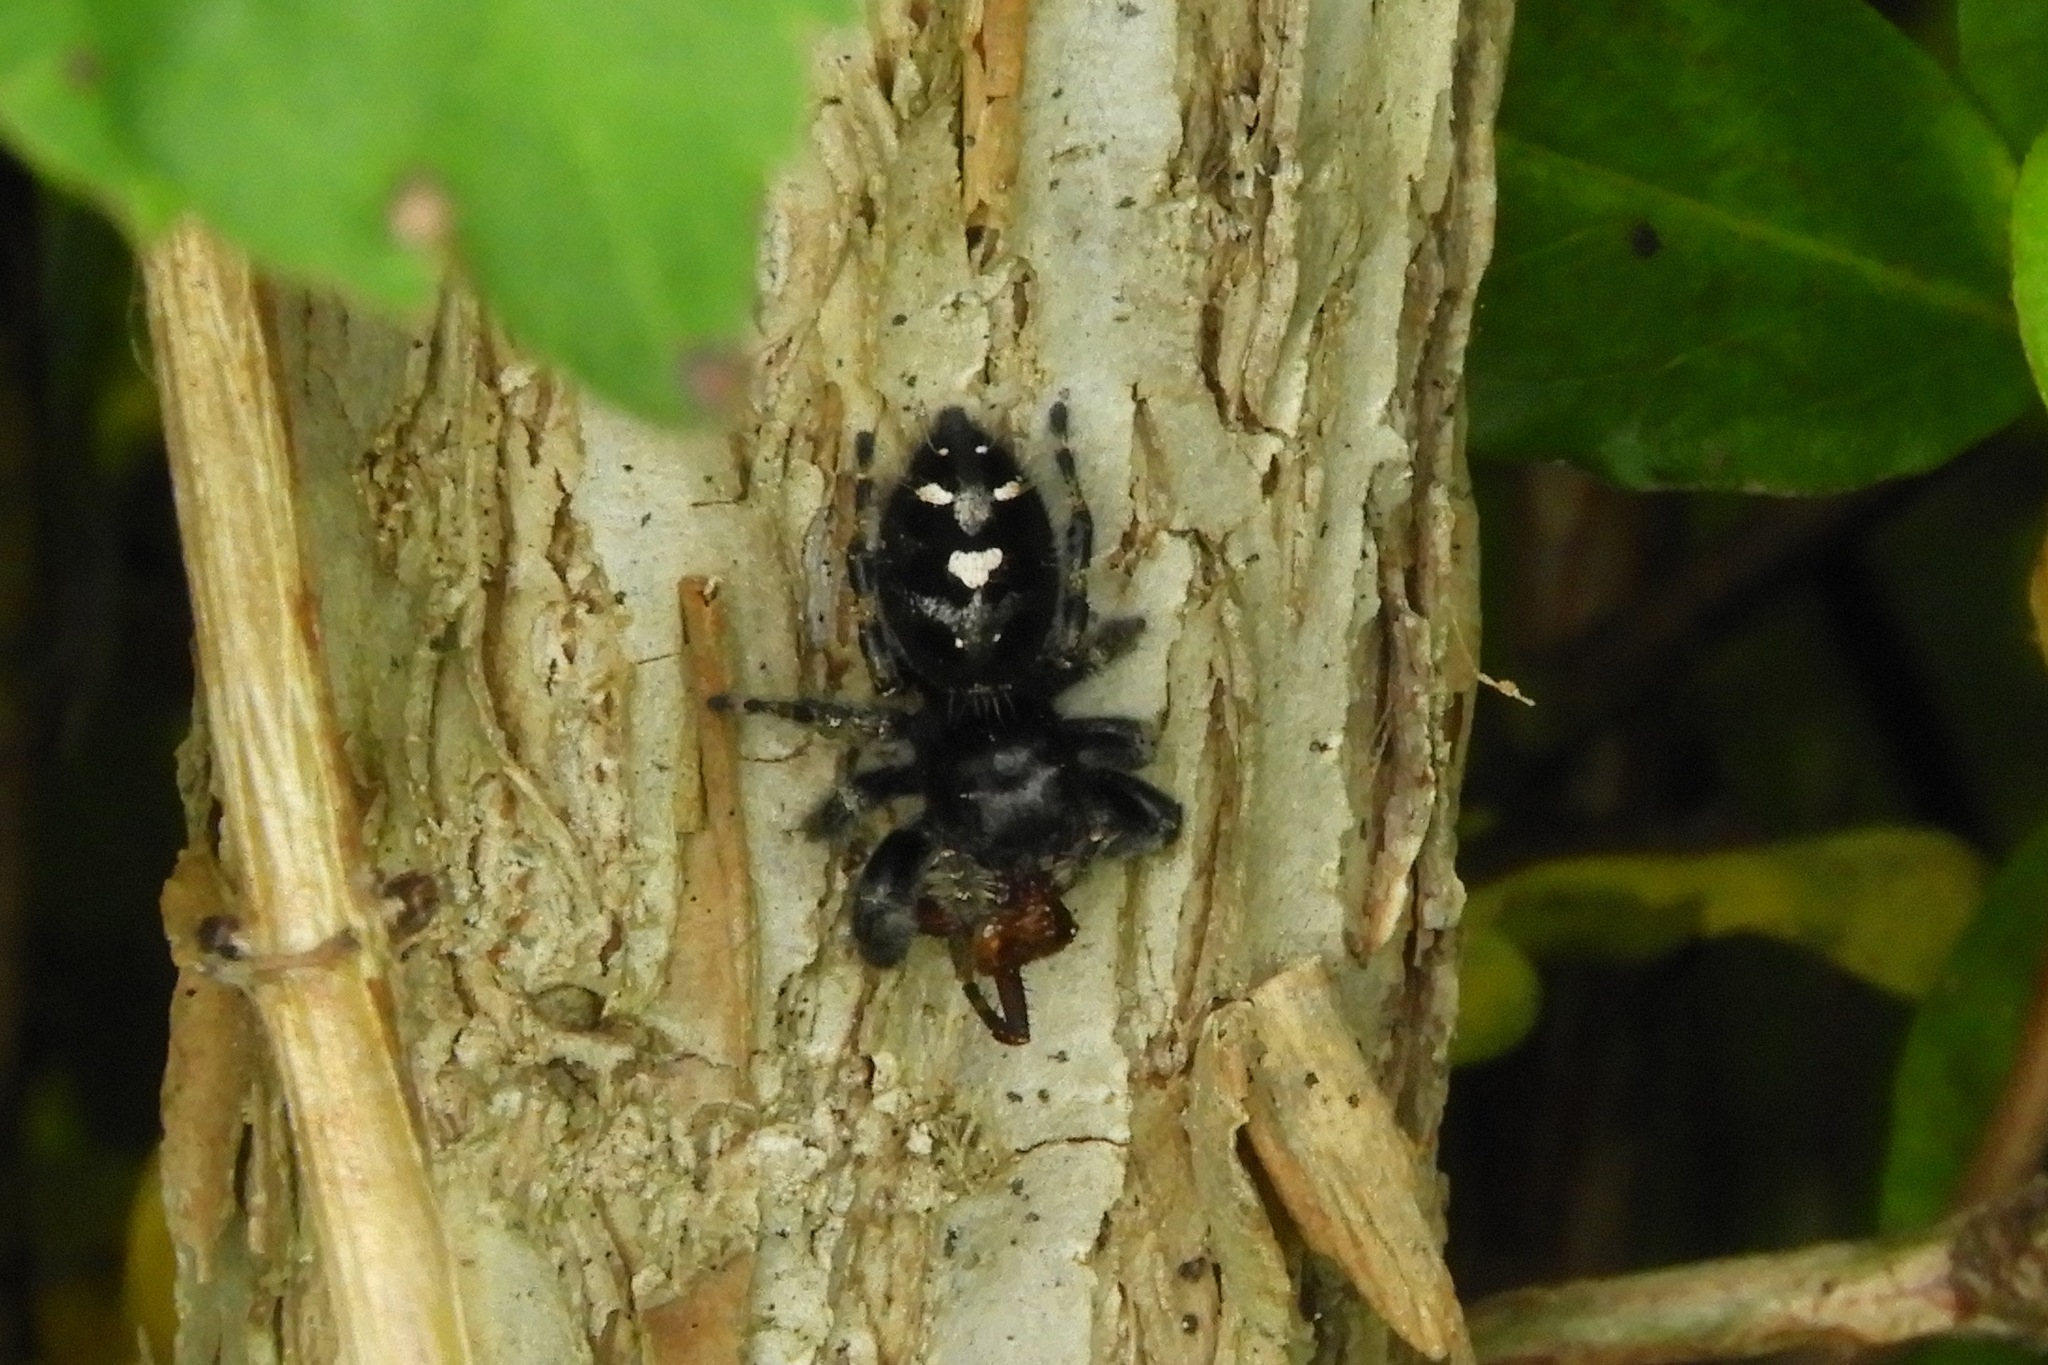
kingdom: Animalia
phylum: Arthropoda
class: Arachnida
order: Araneae
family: Salticidae
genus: Phidippus
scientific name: Phidippus audax
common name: Bold jumper
